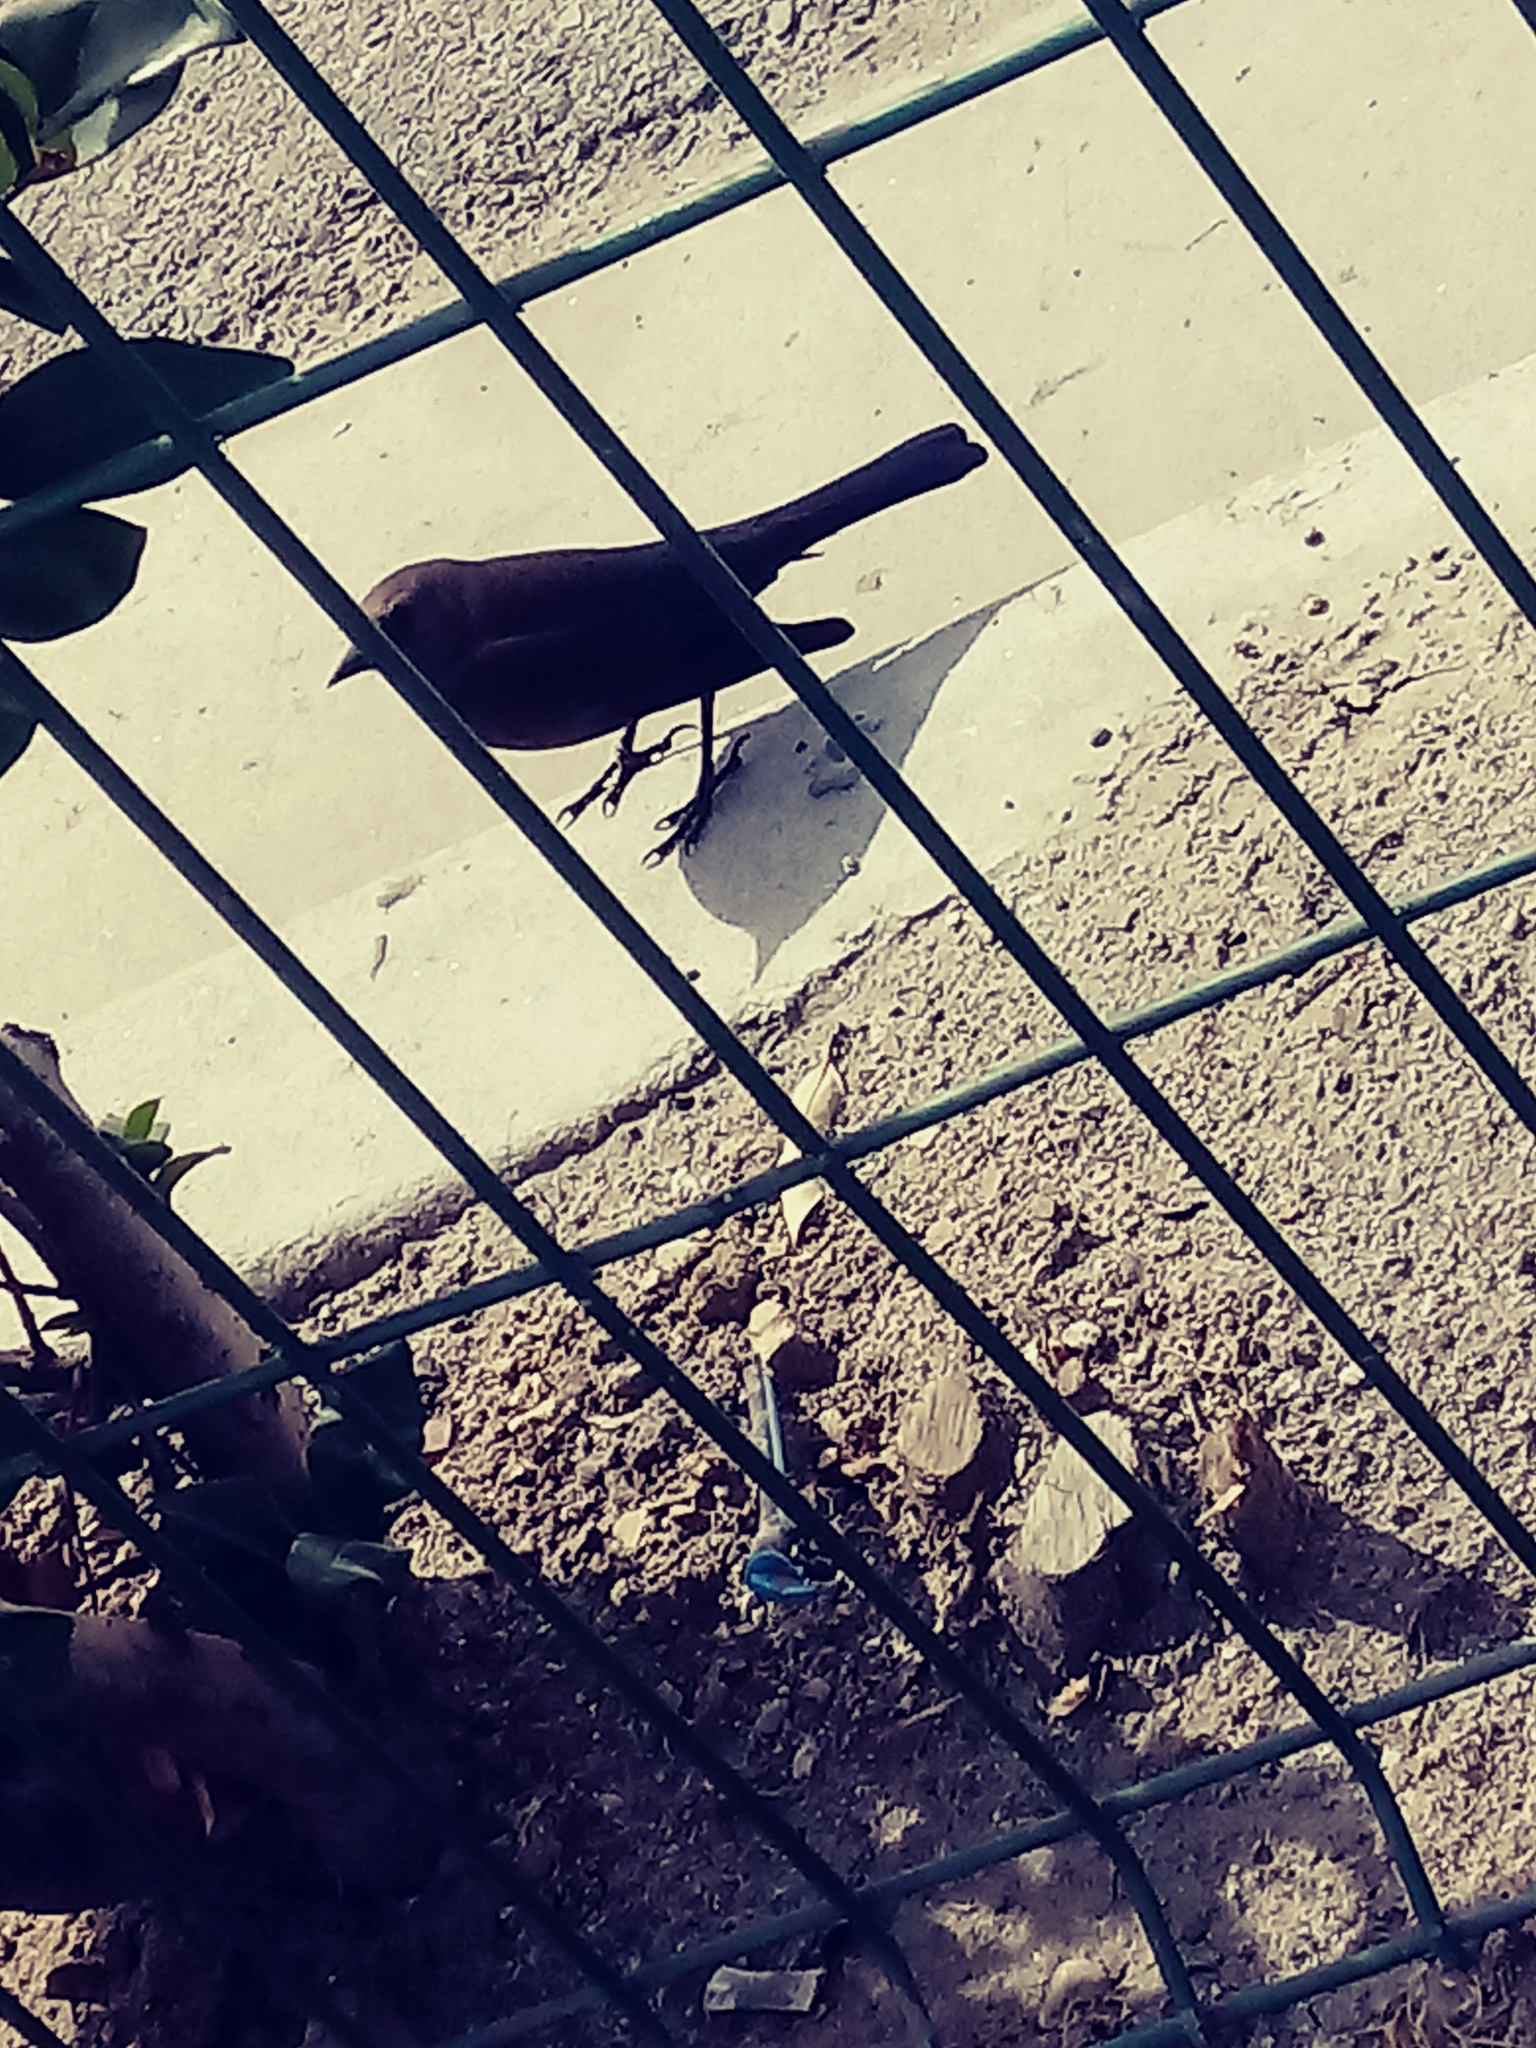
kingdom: Animalia
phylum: Chordata
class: Aves
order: Passeriformes
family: Icteridae
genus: Euphagus
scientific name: Euphagus cyanocephalus
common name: Brewer's blackbird
